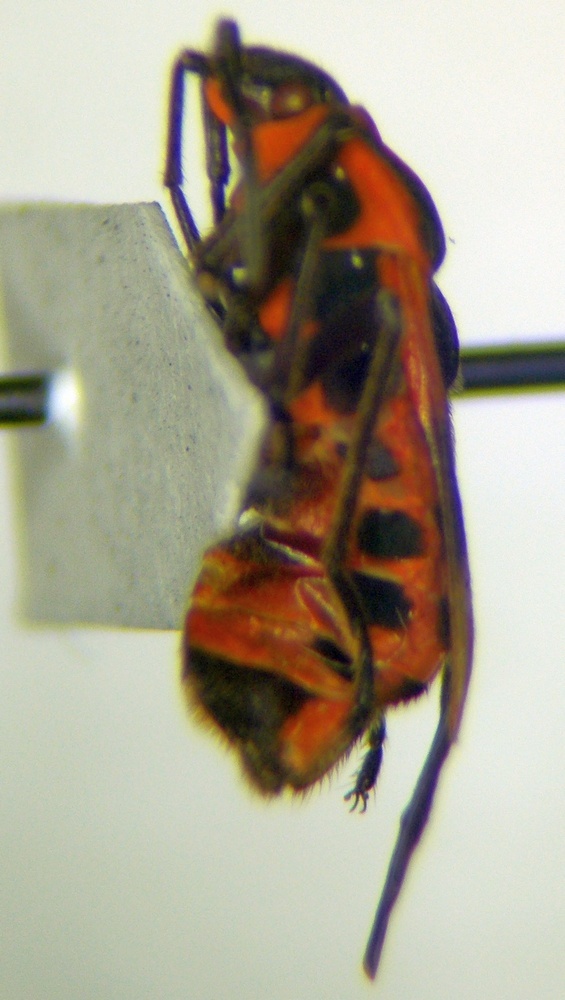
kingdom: Animalia
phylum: Arthropoda
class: Insecta
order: Hemiptera
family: Lygaeidae
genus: Tropidothorax
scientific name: Tropidothorax leucopterus
